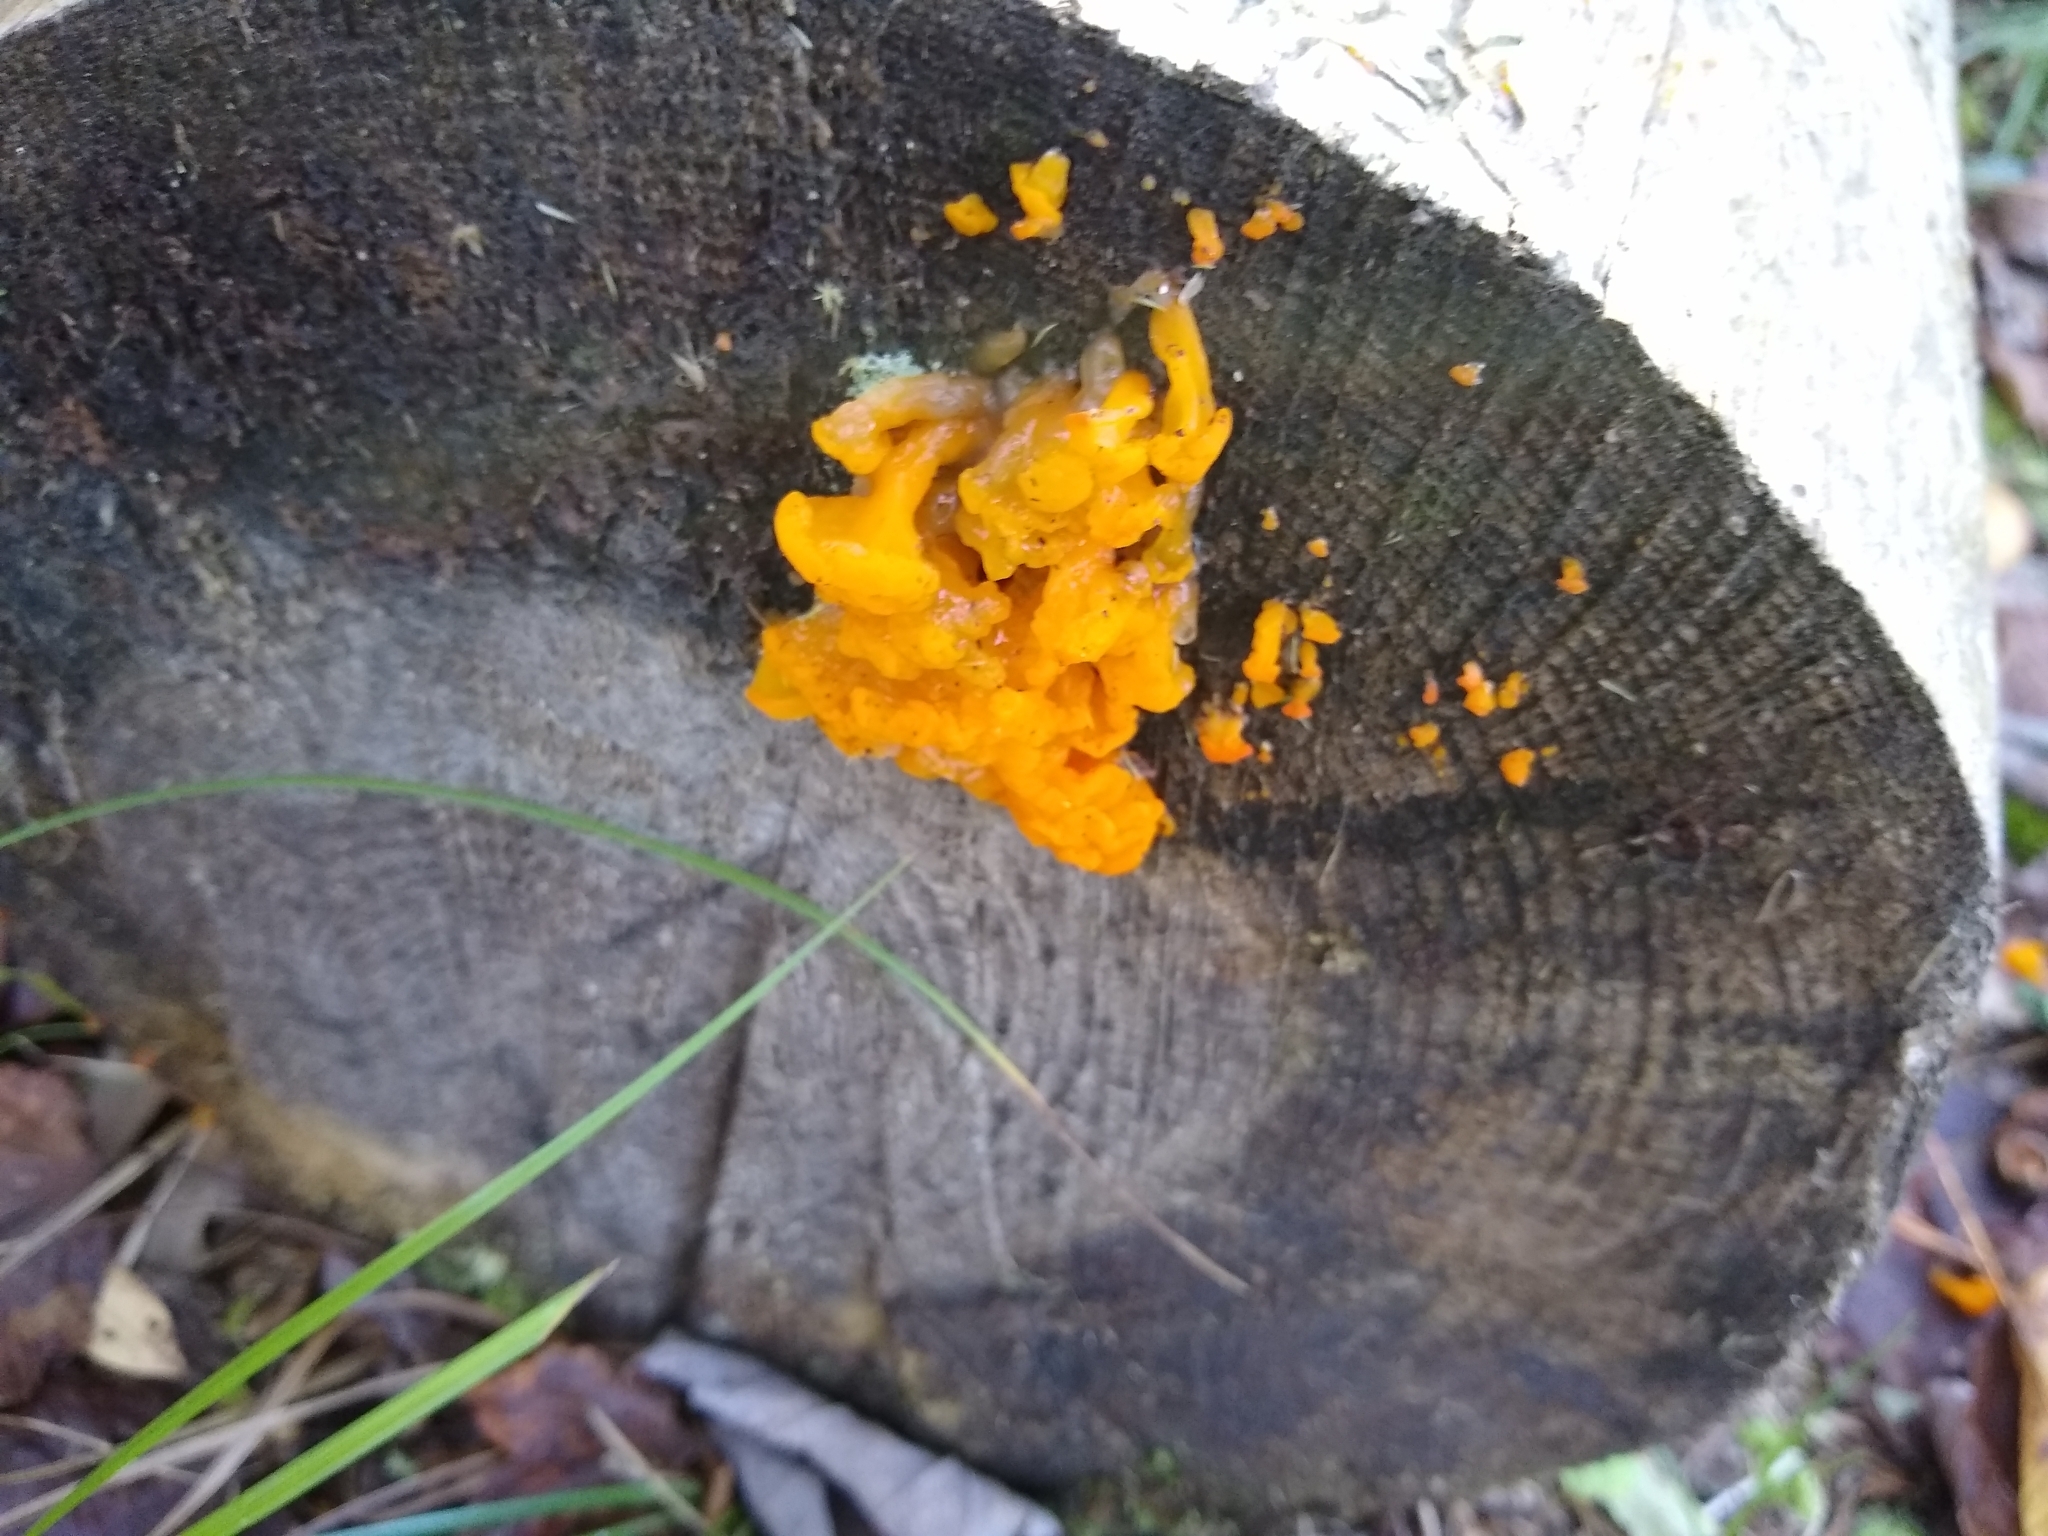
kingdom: Fungi
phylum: Basidiomycota
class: Dacrymycetes
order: Dacrymycetales
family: Dacrymycetaceae
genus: Dacrymyces
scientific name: Dacrymyces spathularius
